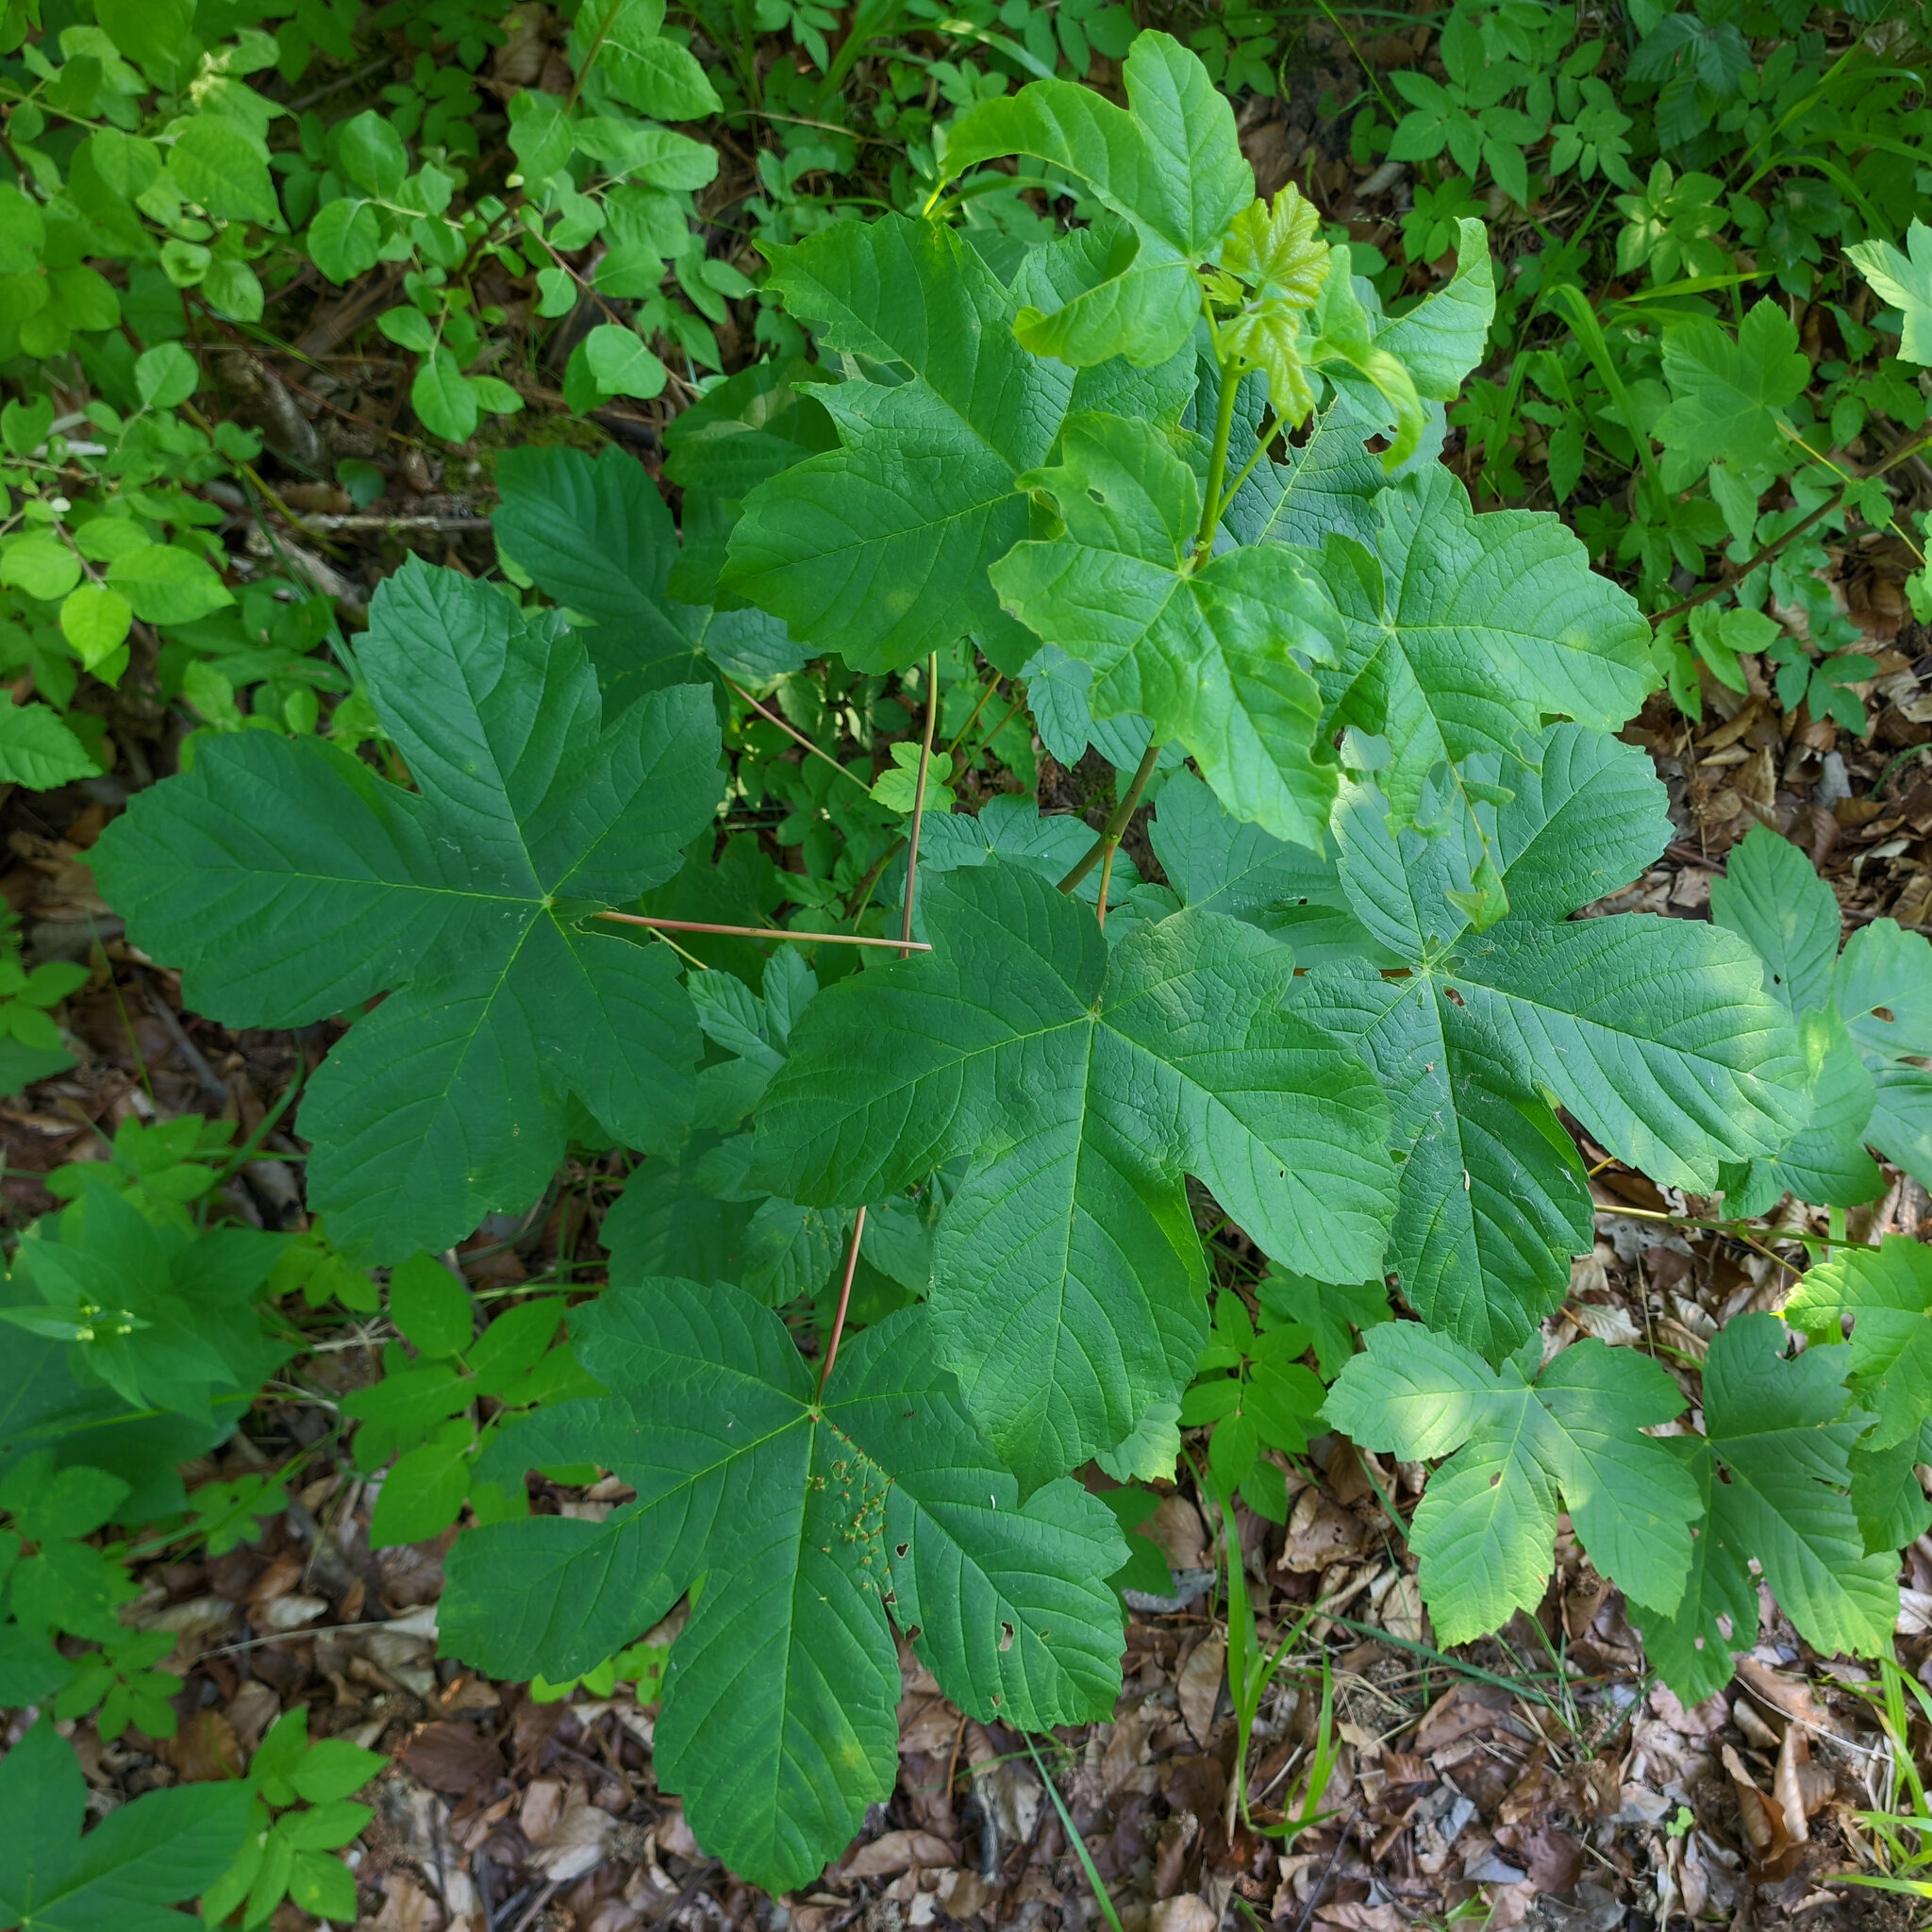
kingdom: Plantae
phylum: Tracheophyta
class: Magnoliopsida
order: Sapindales
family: Sapindaceae
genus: Acer
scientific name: Acer pseudoplatanus
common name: Sycamore
